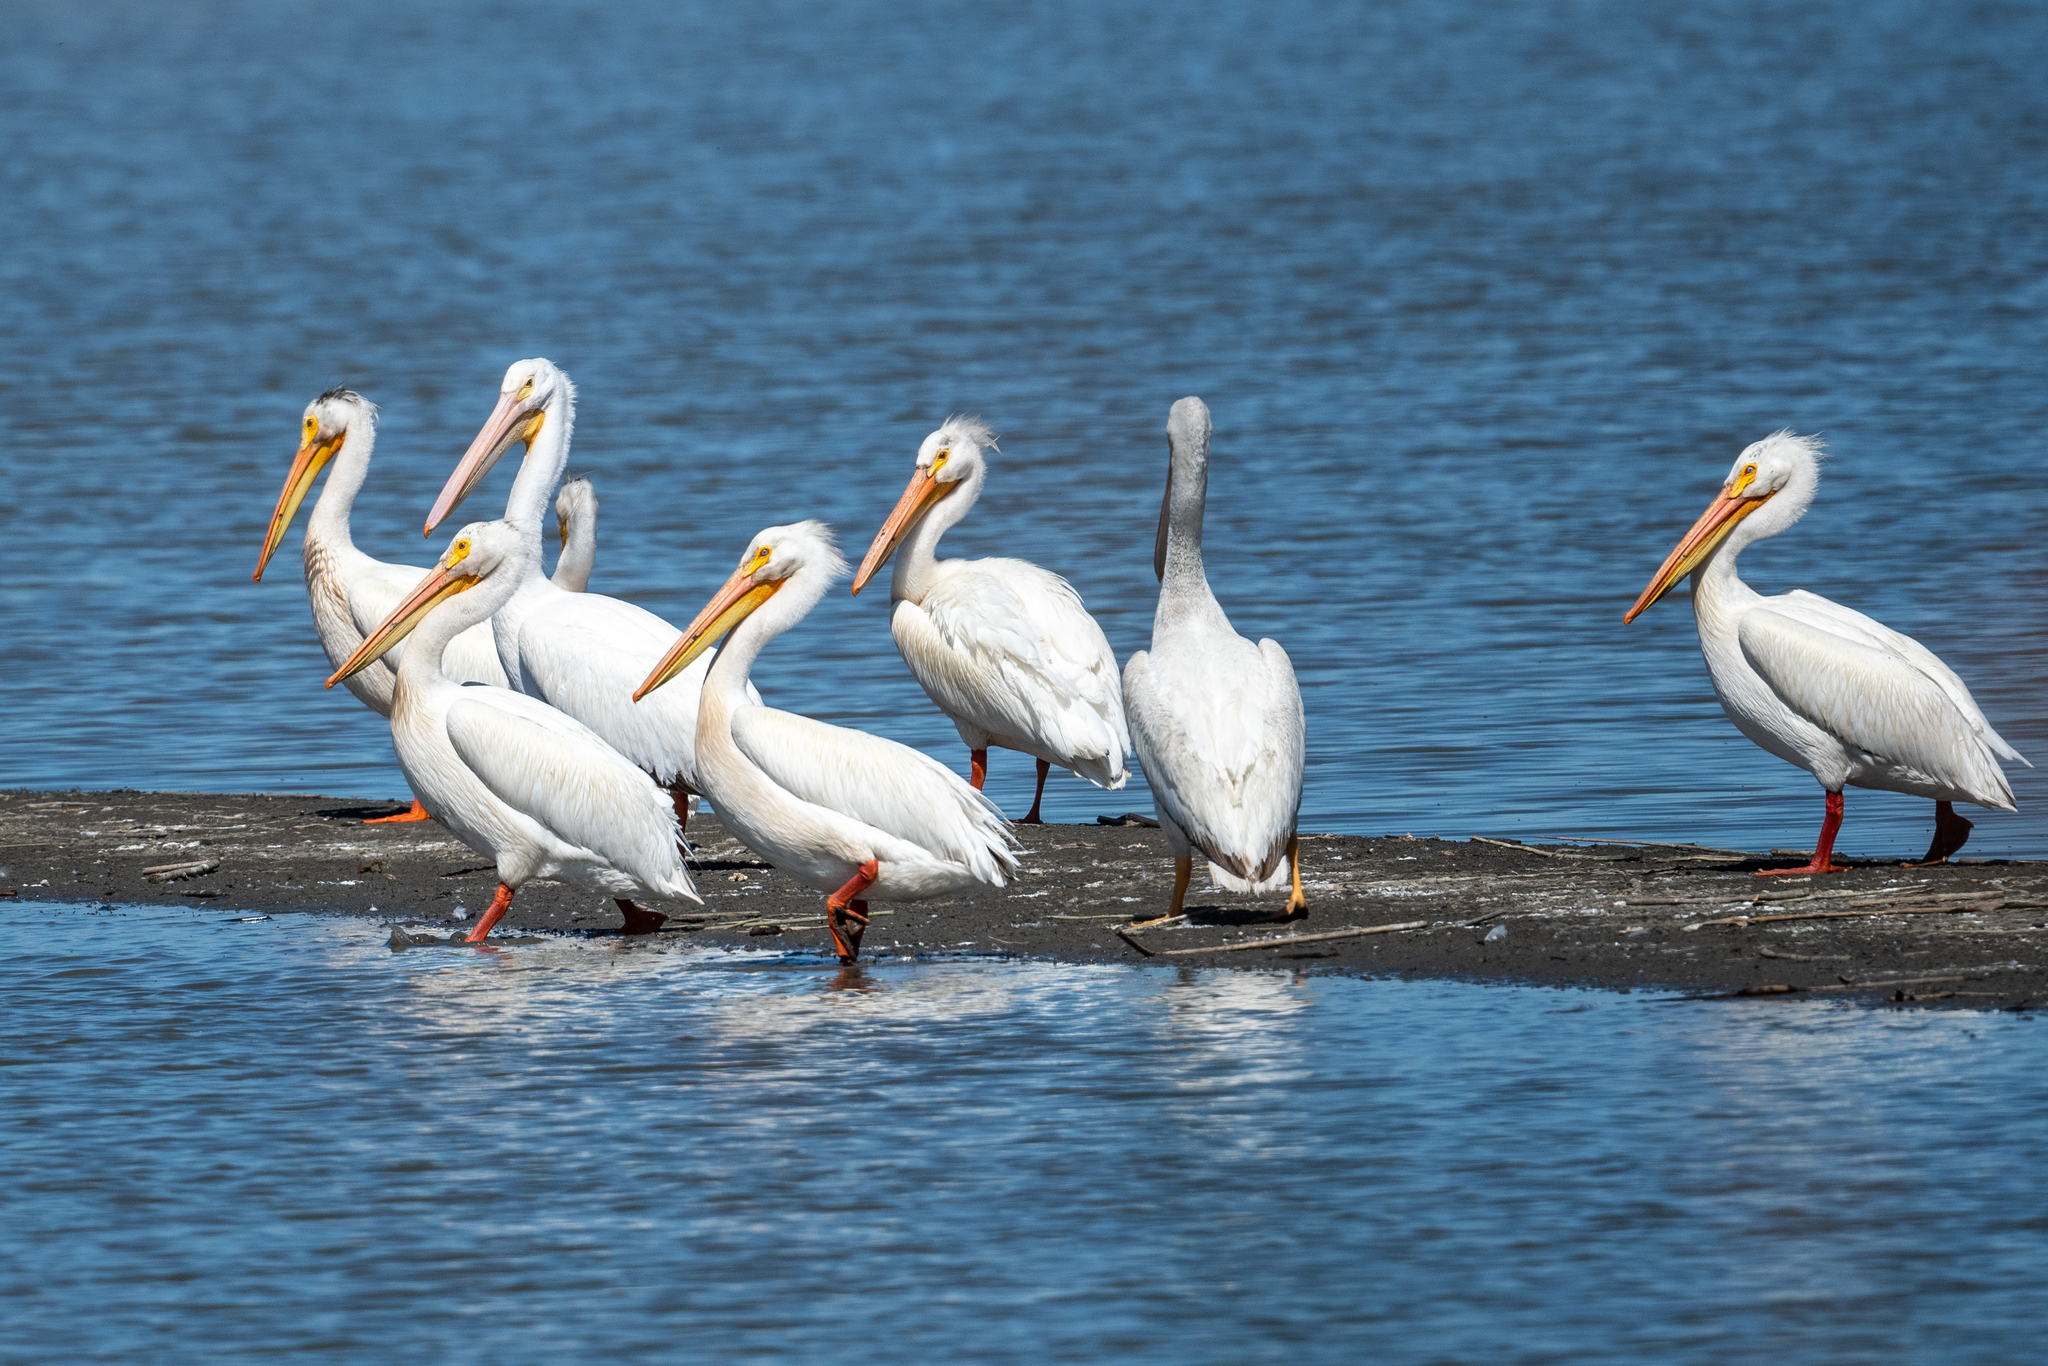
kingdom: Animalia
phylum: Chordata
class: Aves
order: Pelecaniformes
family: Pelecanidae
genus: Pelecanus
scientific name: Pelecanus erythrorhynchos
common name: American white pelican
